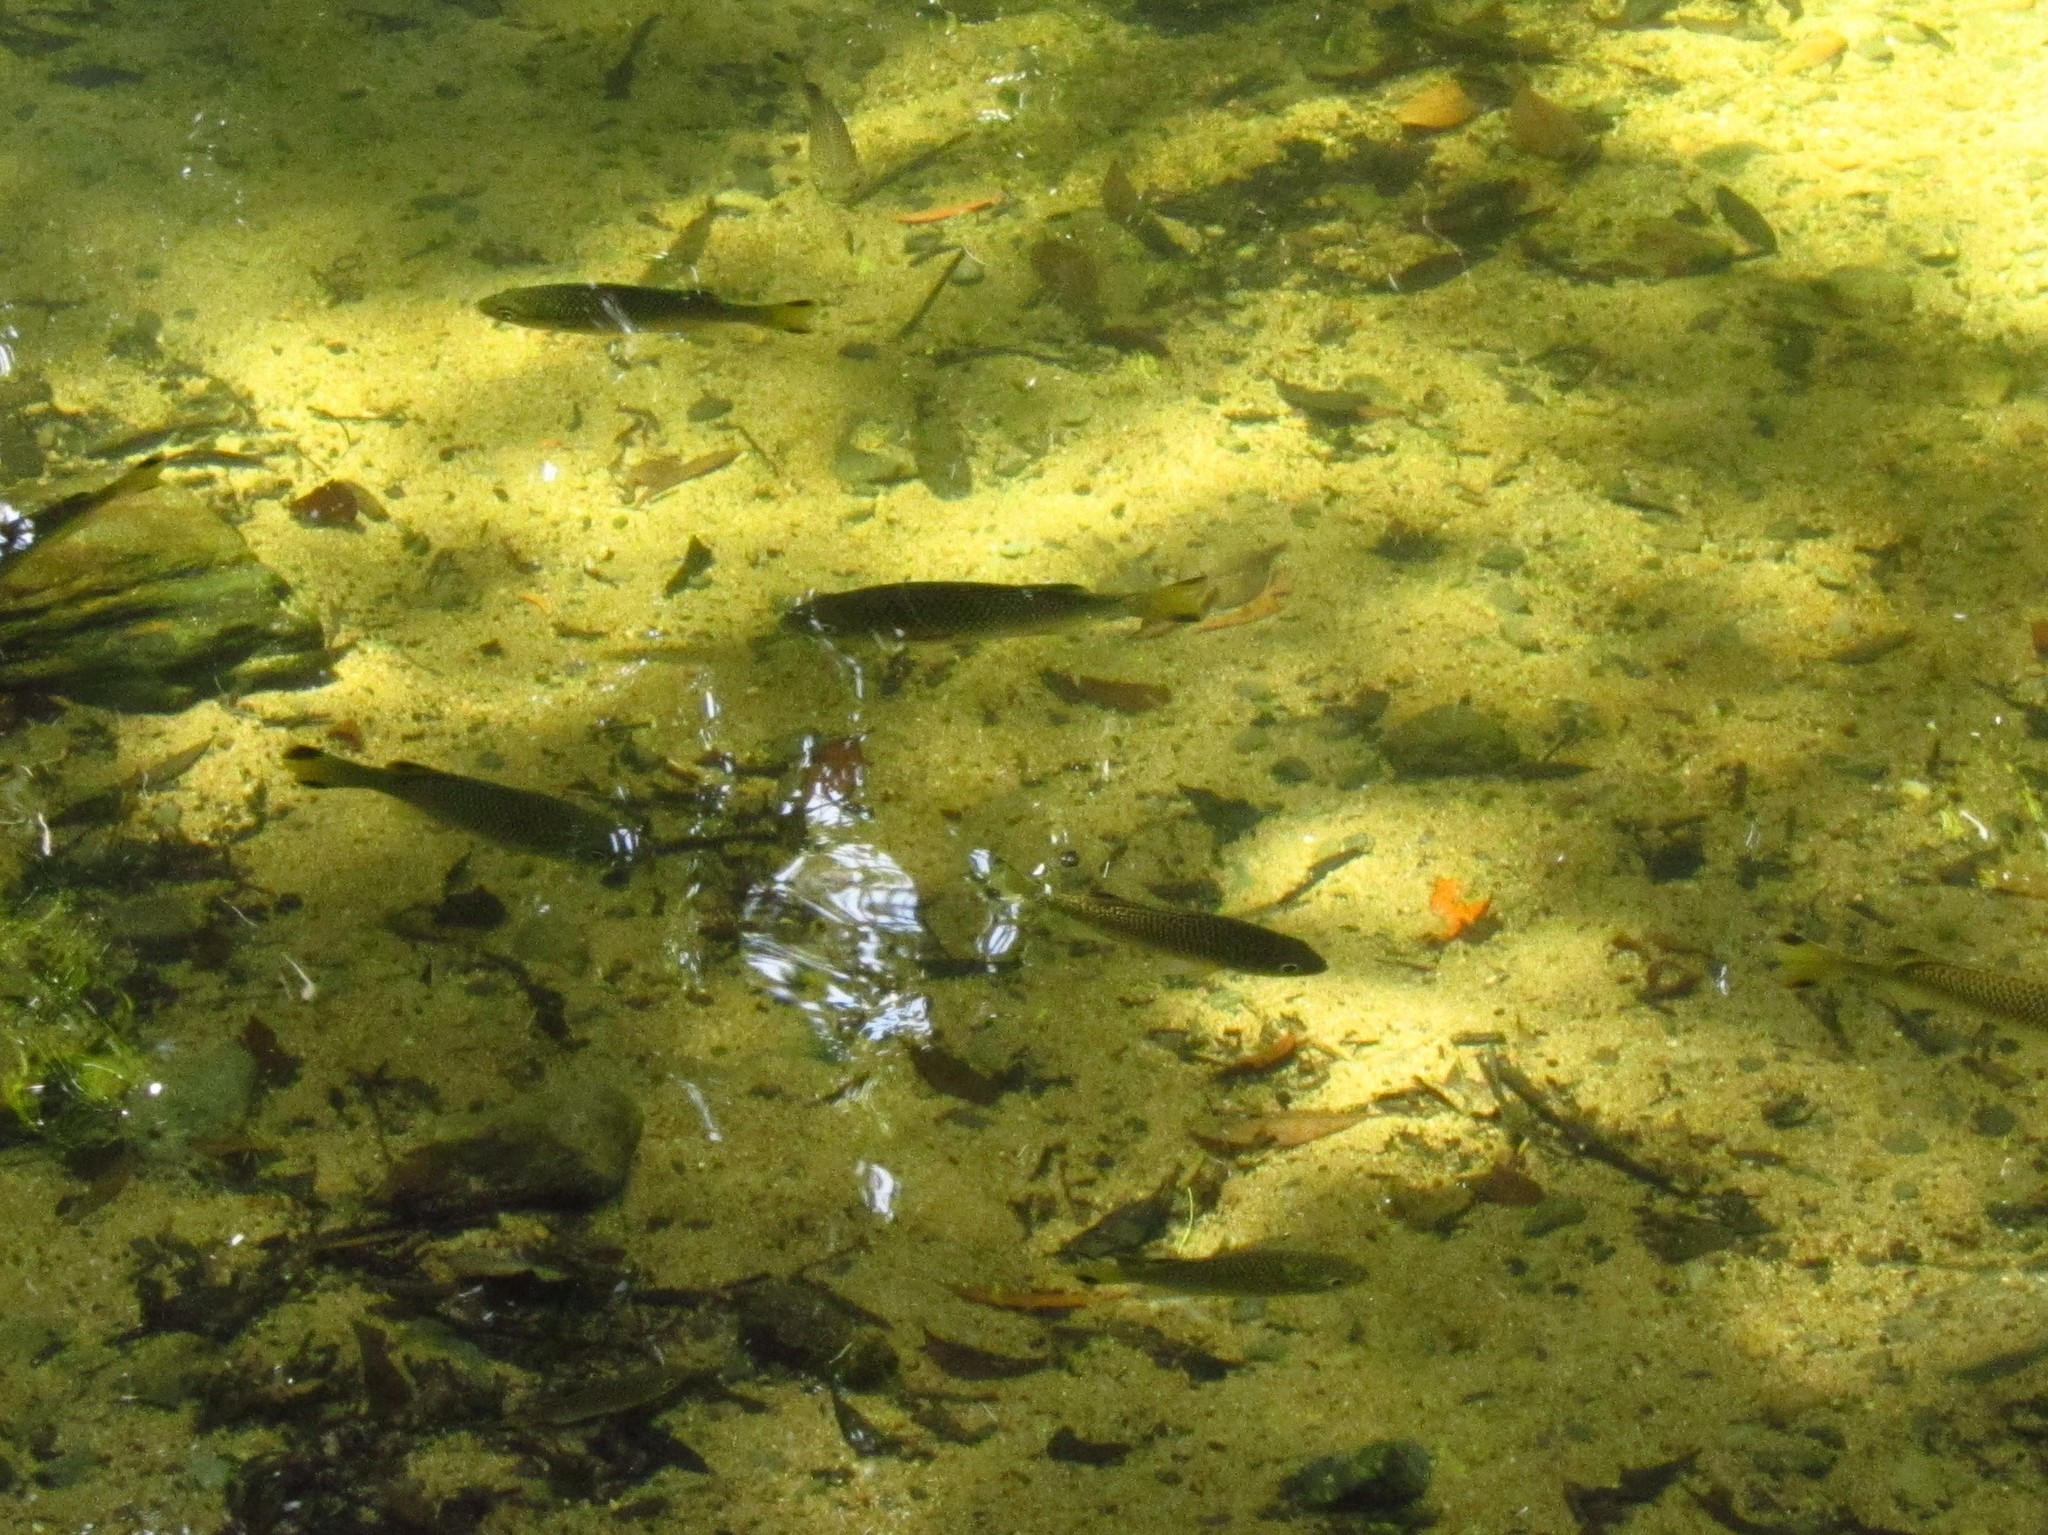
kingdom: Animalia
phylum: Chordata
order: Perciformes
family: Kuhliidae
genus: Kuhlia
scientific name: Kuhlia rupestris
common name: Rock flagtail
